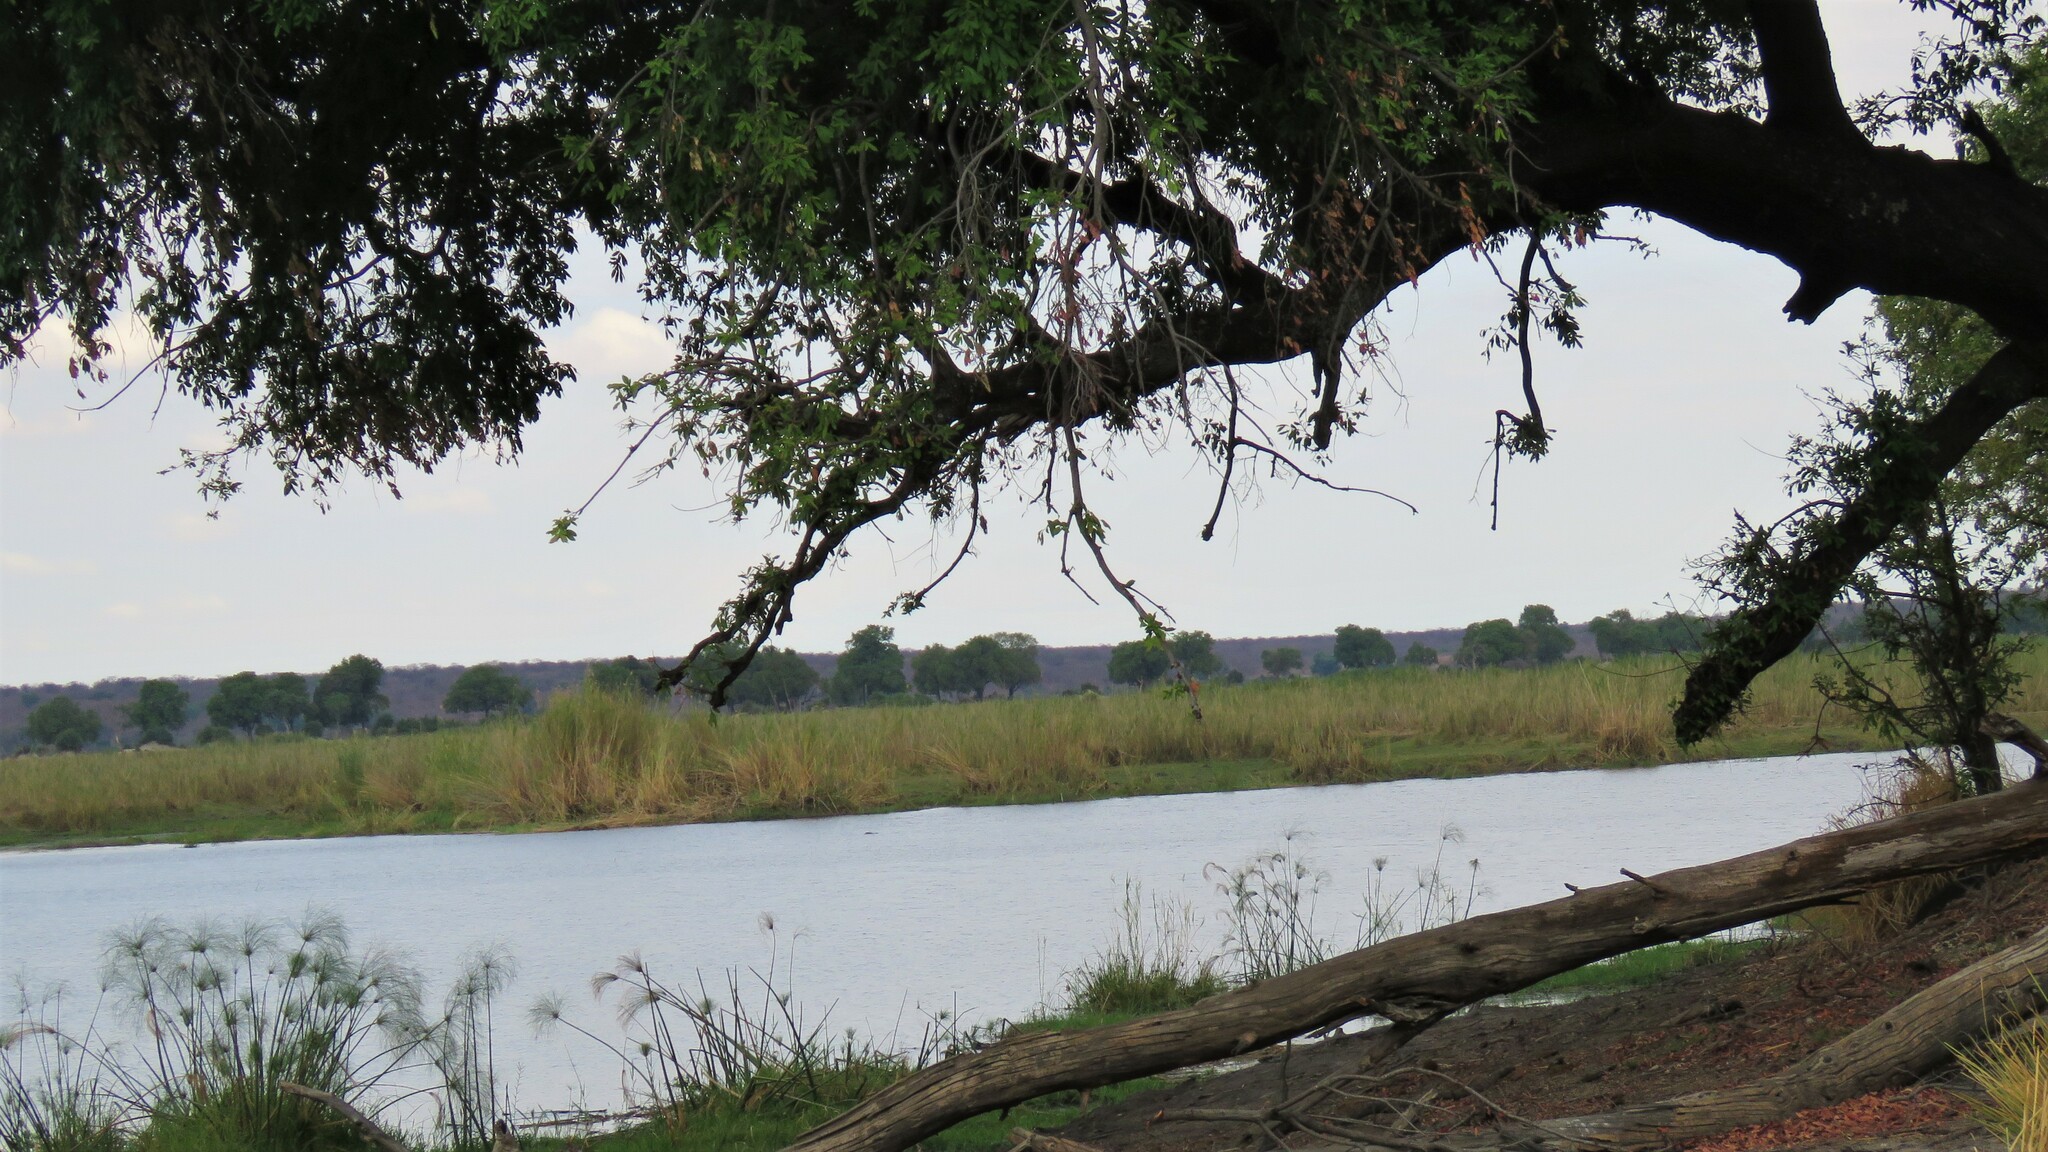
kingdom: Plantae
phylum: Tracheophyta
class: Magnoliopsida
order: Ericales
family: Ebenaceae
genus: Diospyros
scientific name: Diospyros mespiliformis
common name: Ebony diospyros
